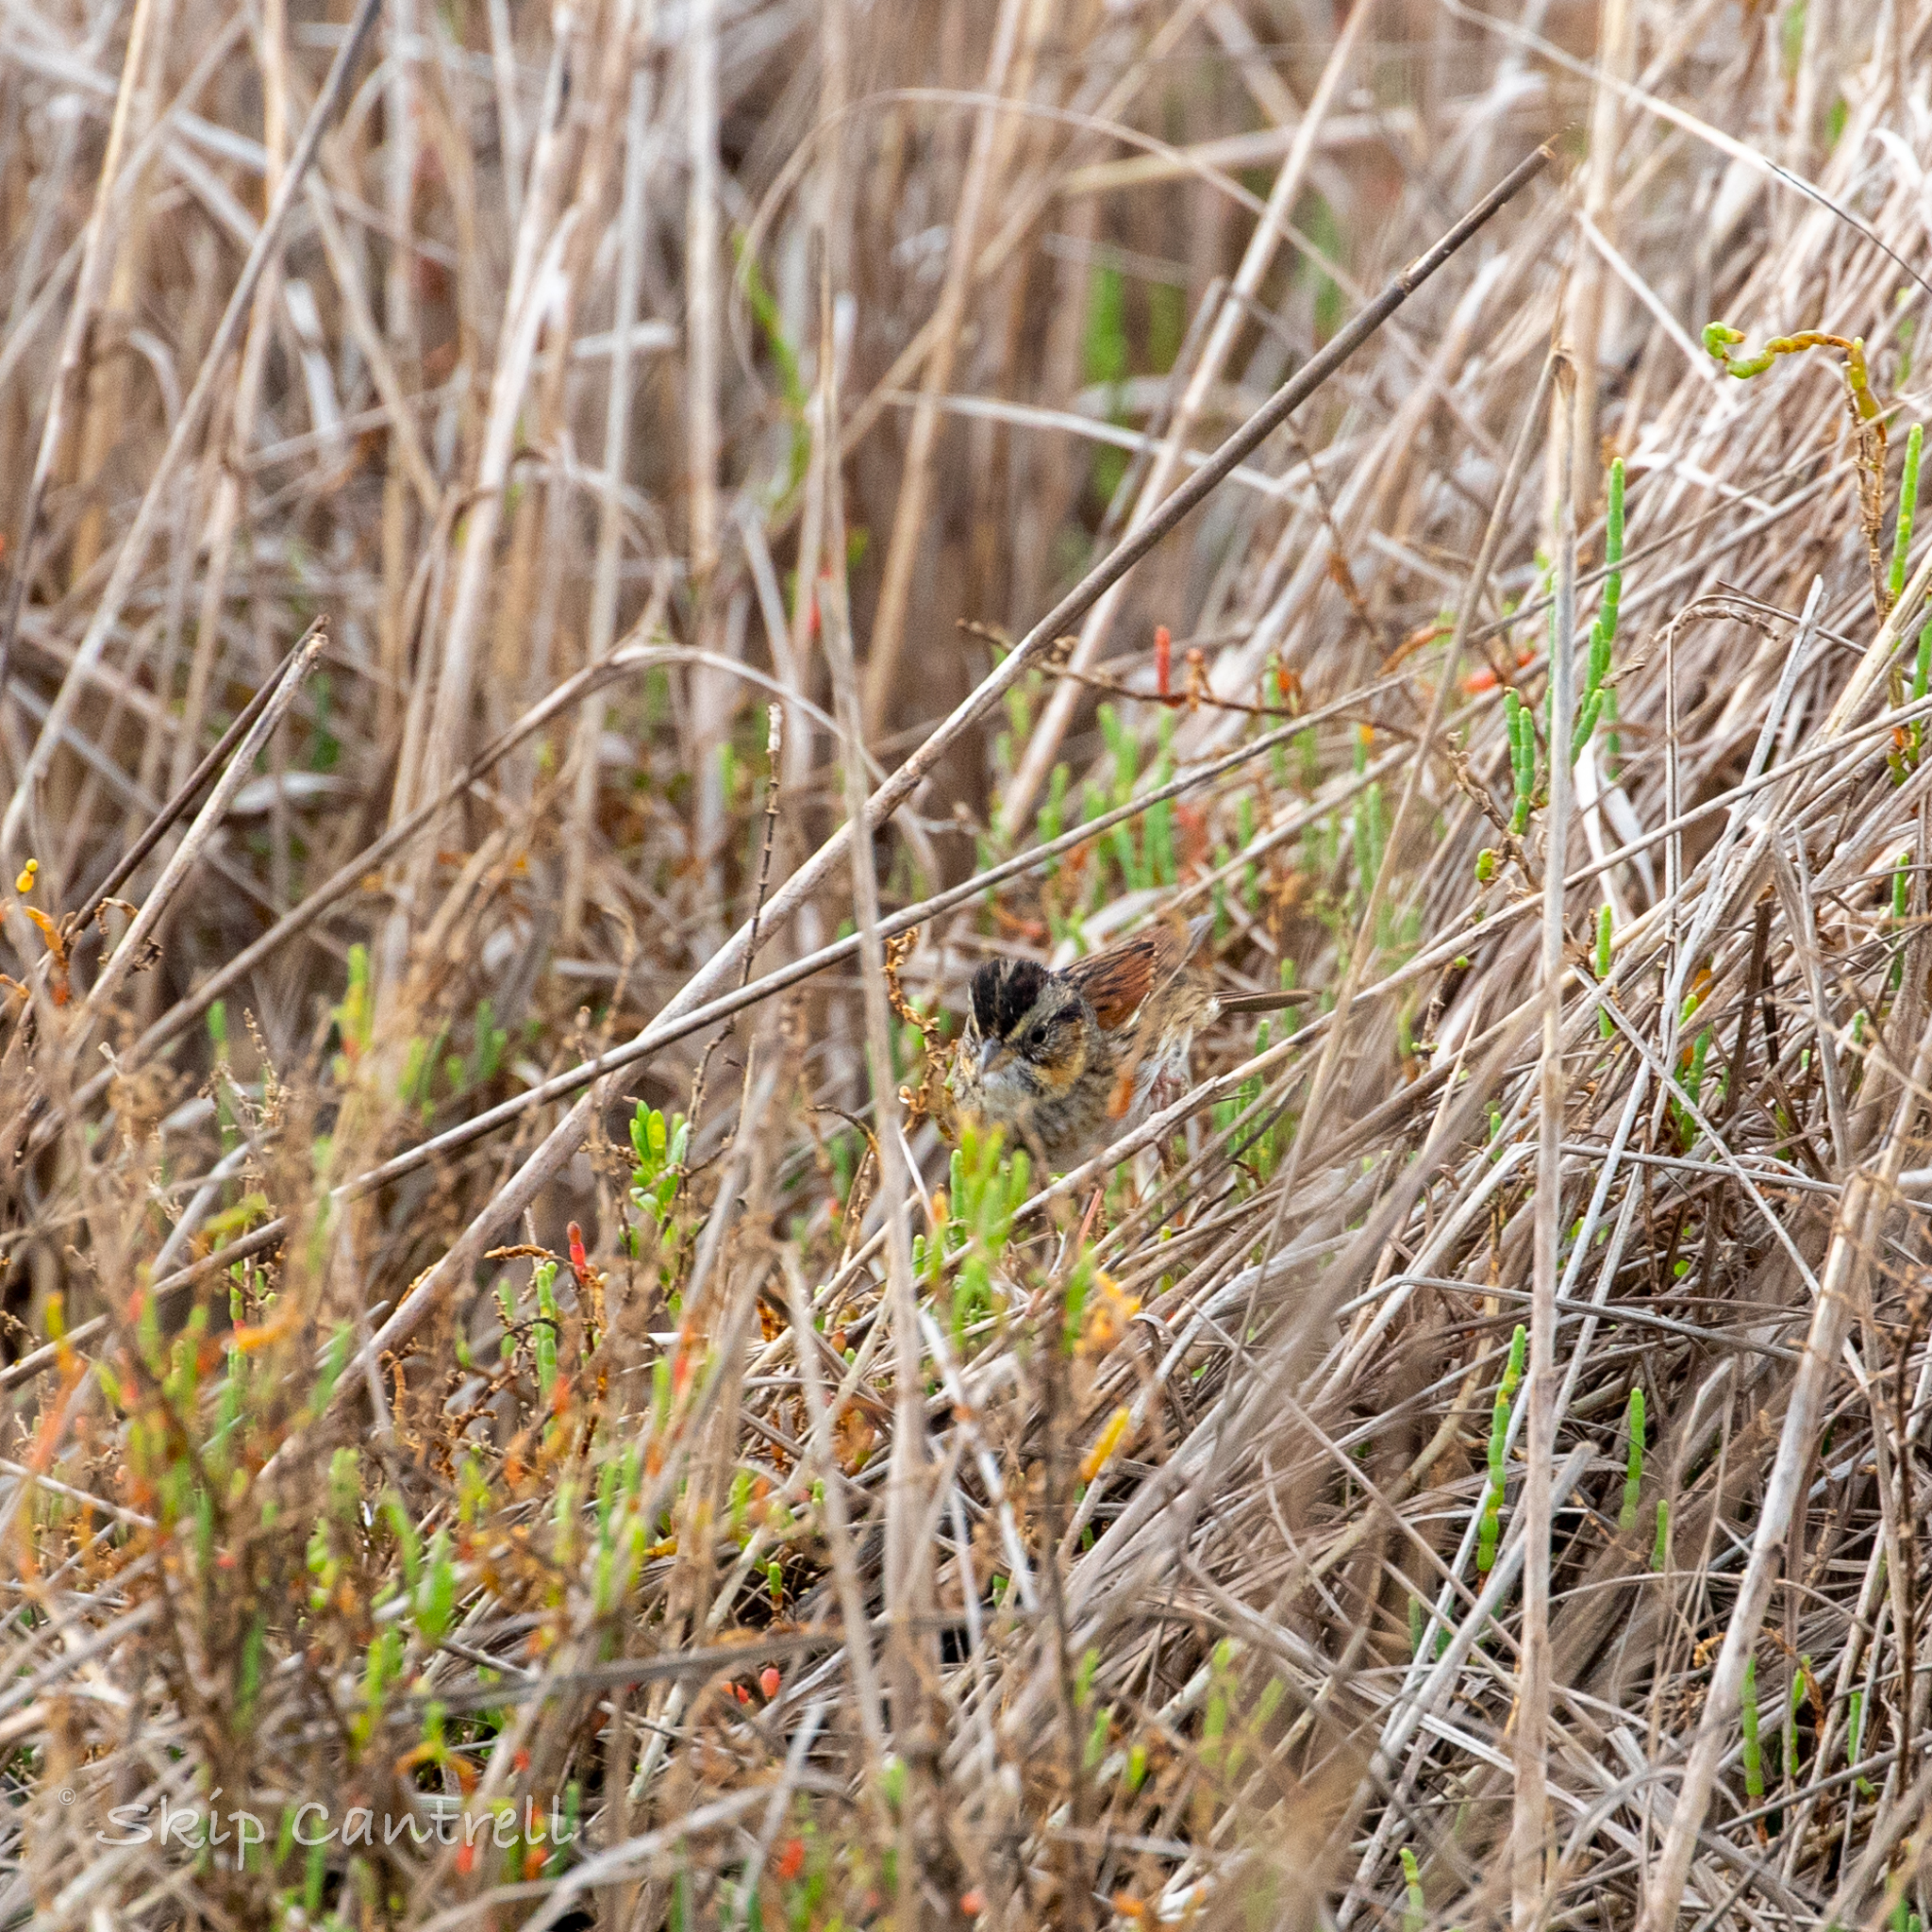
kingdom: Animalia
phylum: Chordata
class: Aves
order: Passeriformes
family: Passerellidae
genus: Melospiza
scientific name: Melospiza georgiana
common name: Swamp sparrow
